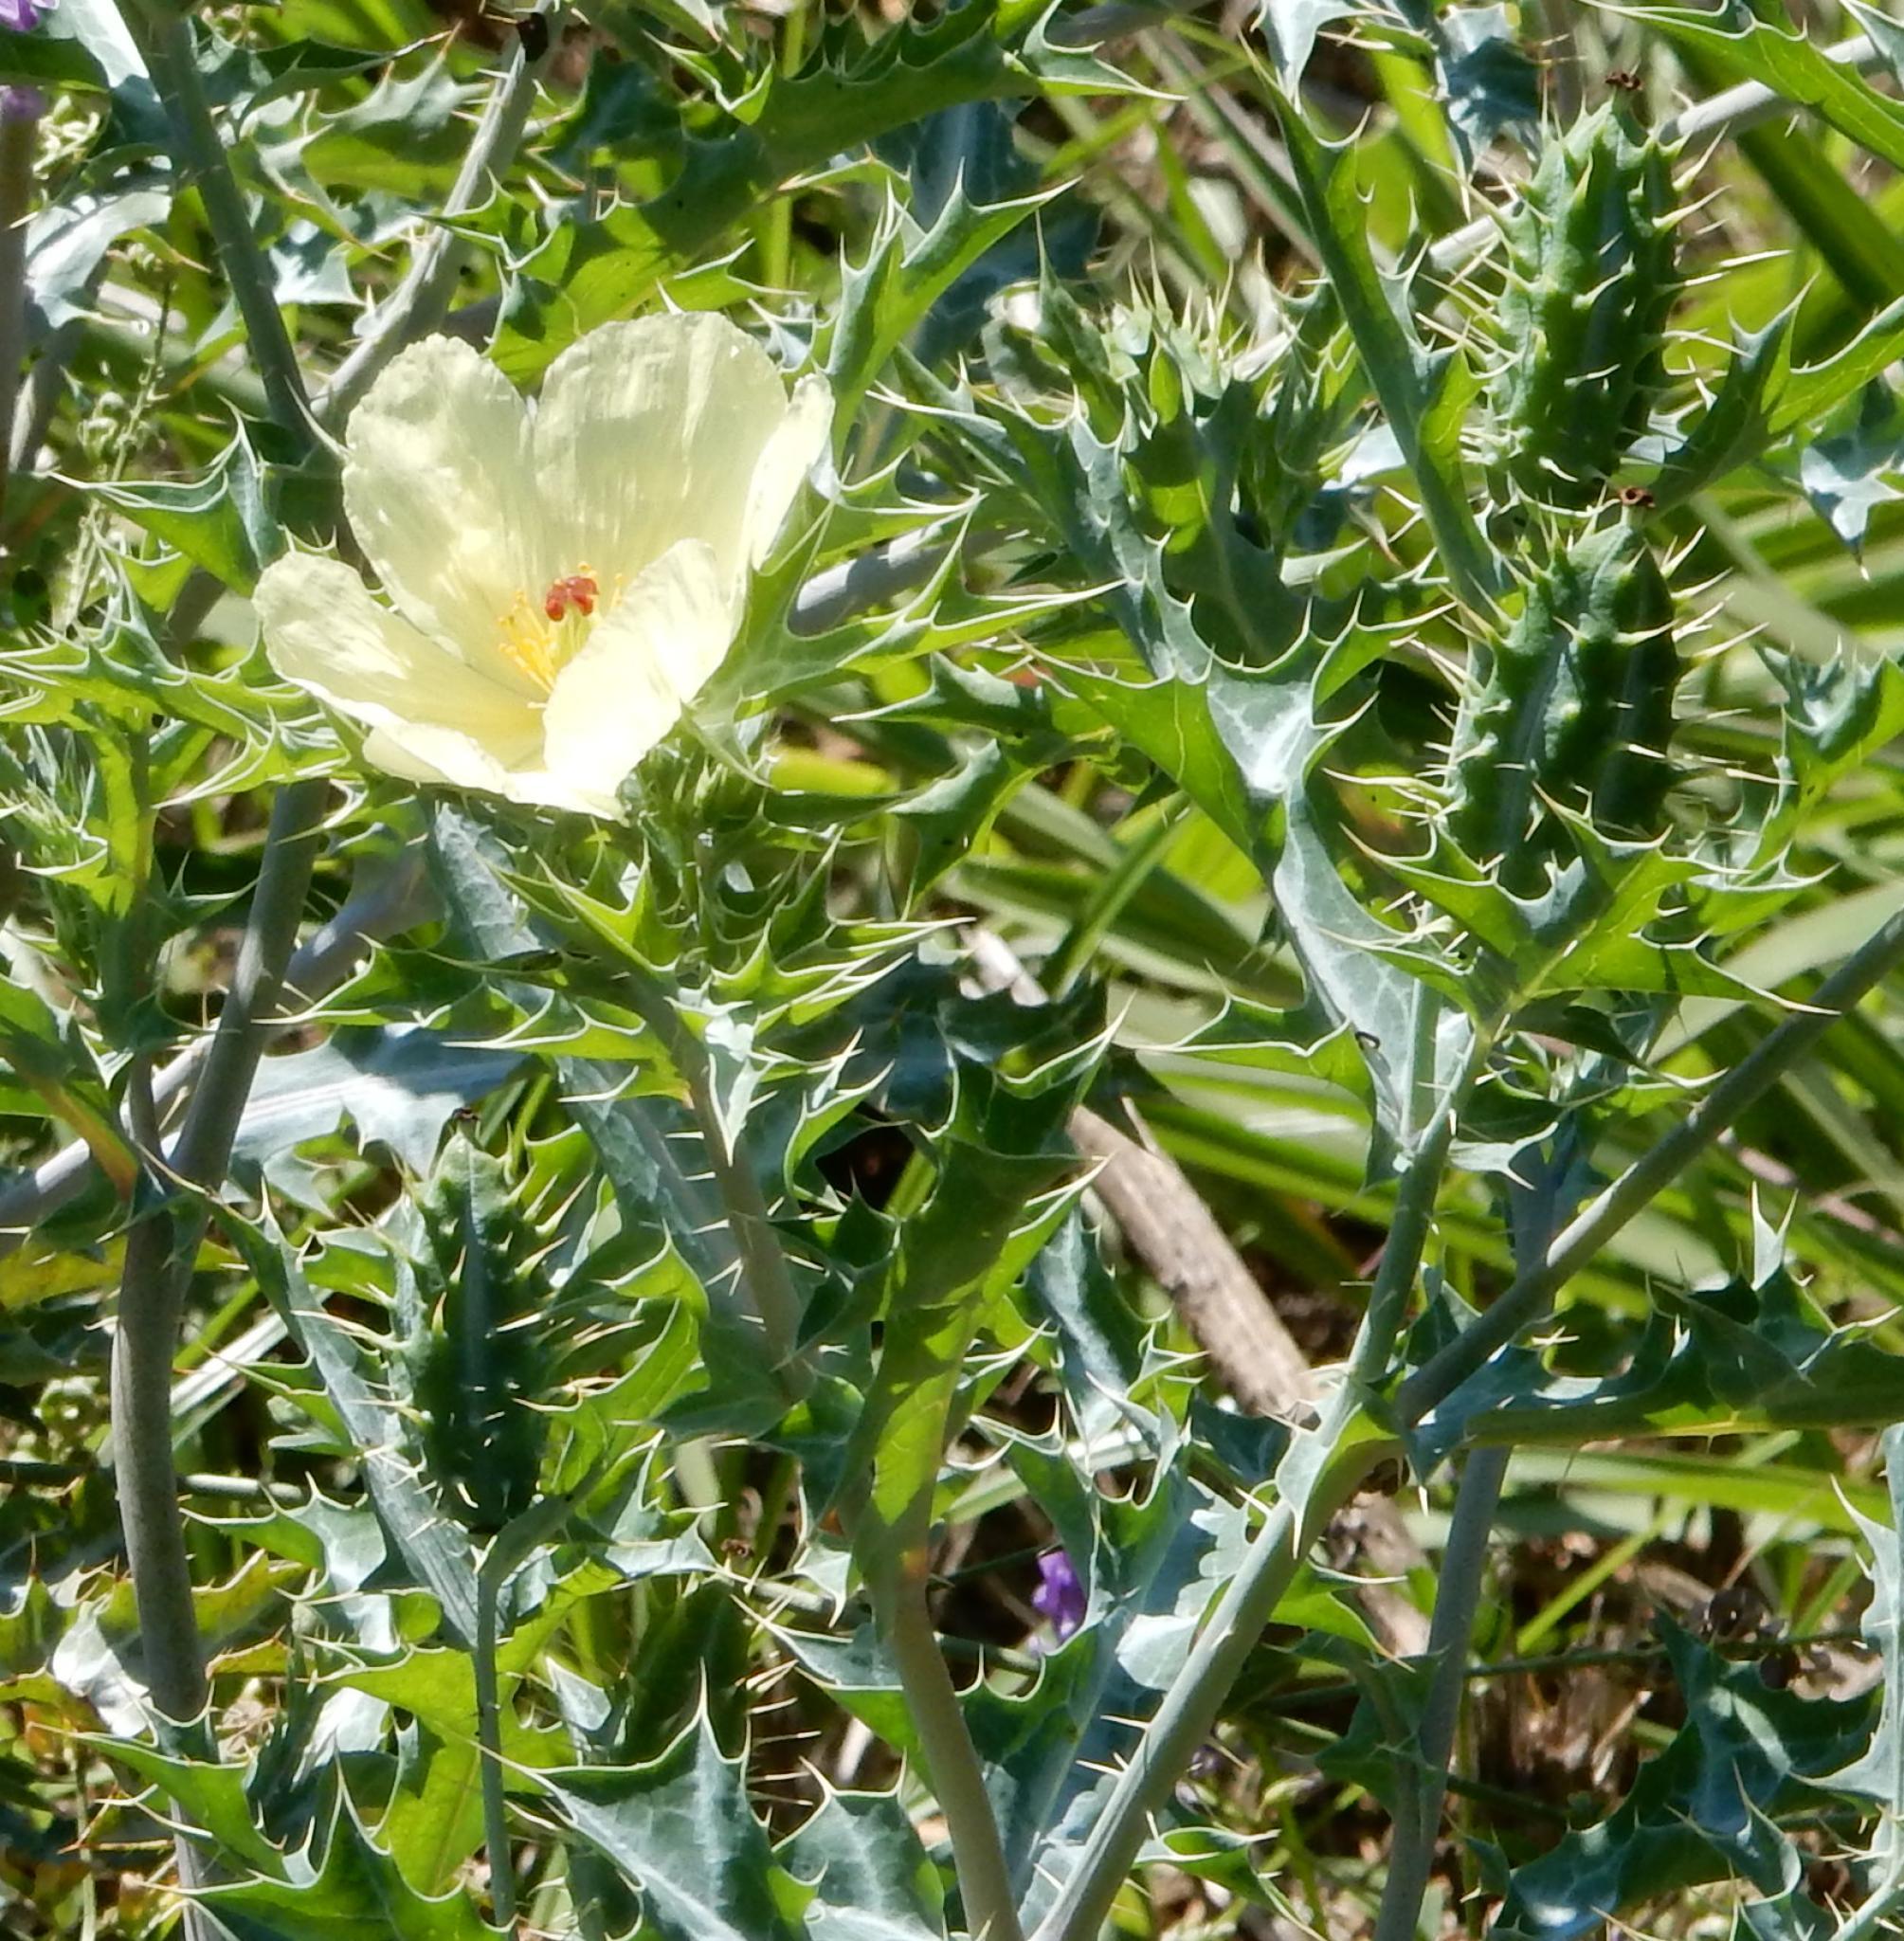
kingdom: Plantae
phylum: Tracheophyta
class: Magnoliopsida
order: Ranunculales
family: Papaveraceae
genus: Argemone
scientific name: Argemone ochroleuca
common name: White-flower mexican-poppy
